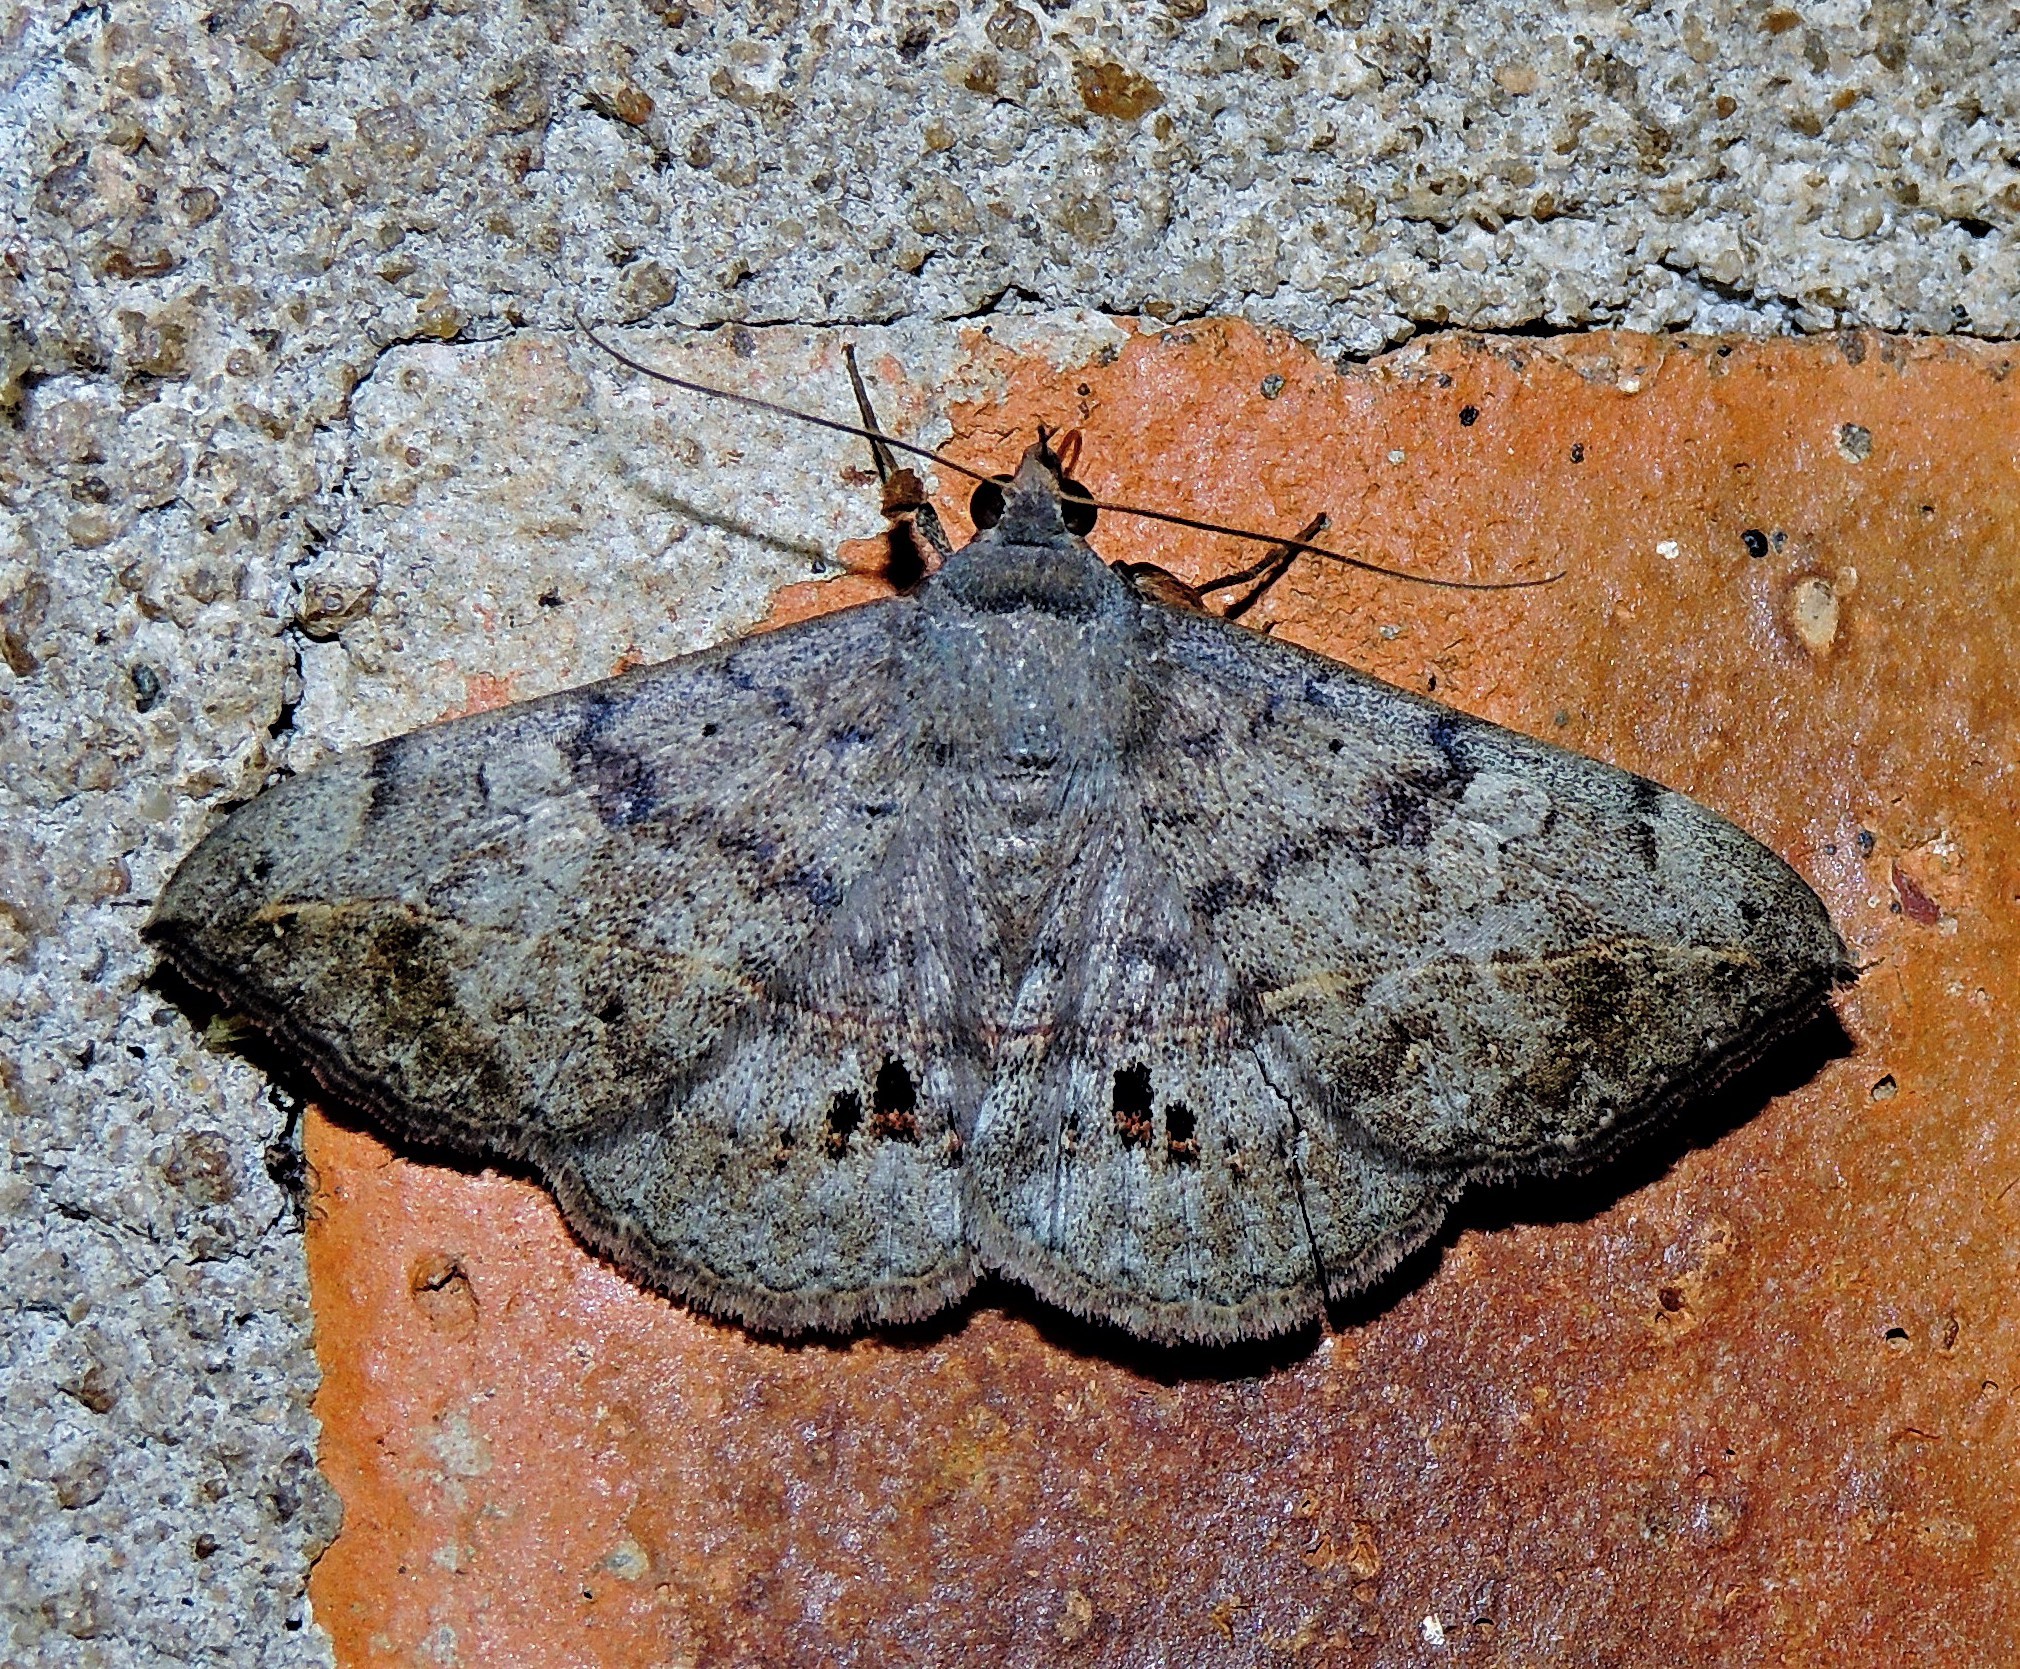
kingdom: Animalia
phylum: Arthropoda
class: Insecta
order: Lepidoptera
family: Erebidae
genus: Anticarsia
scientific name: Anticarsia gemmatalis
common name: Cutworm moth
